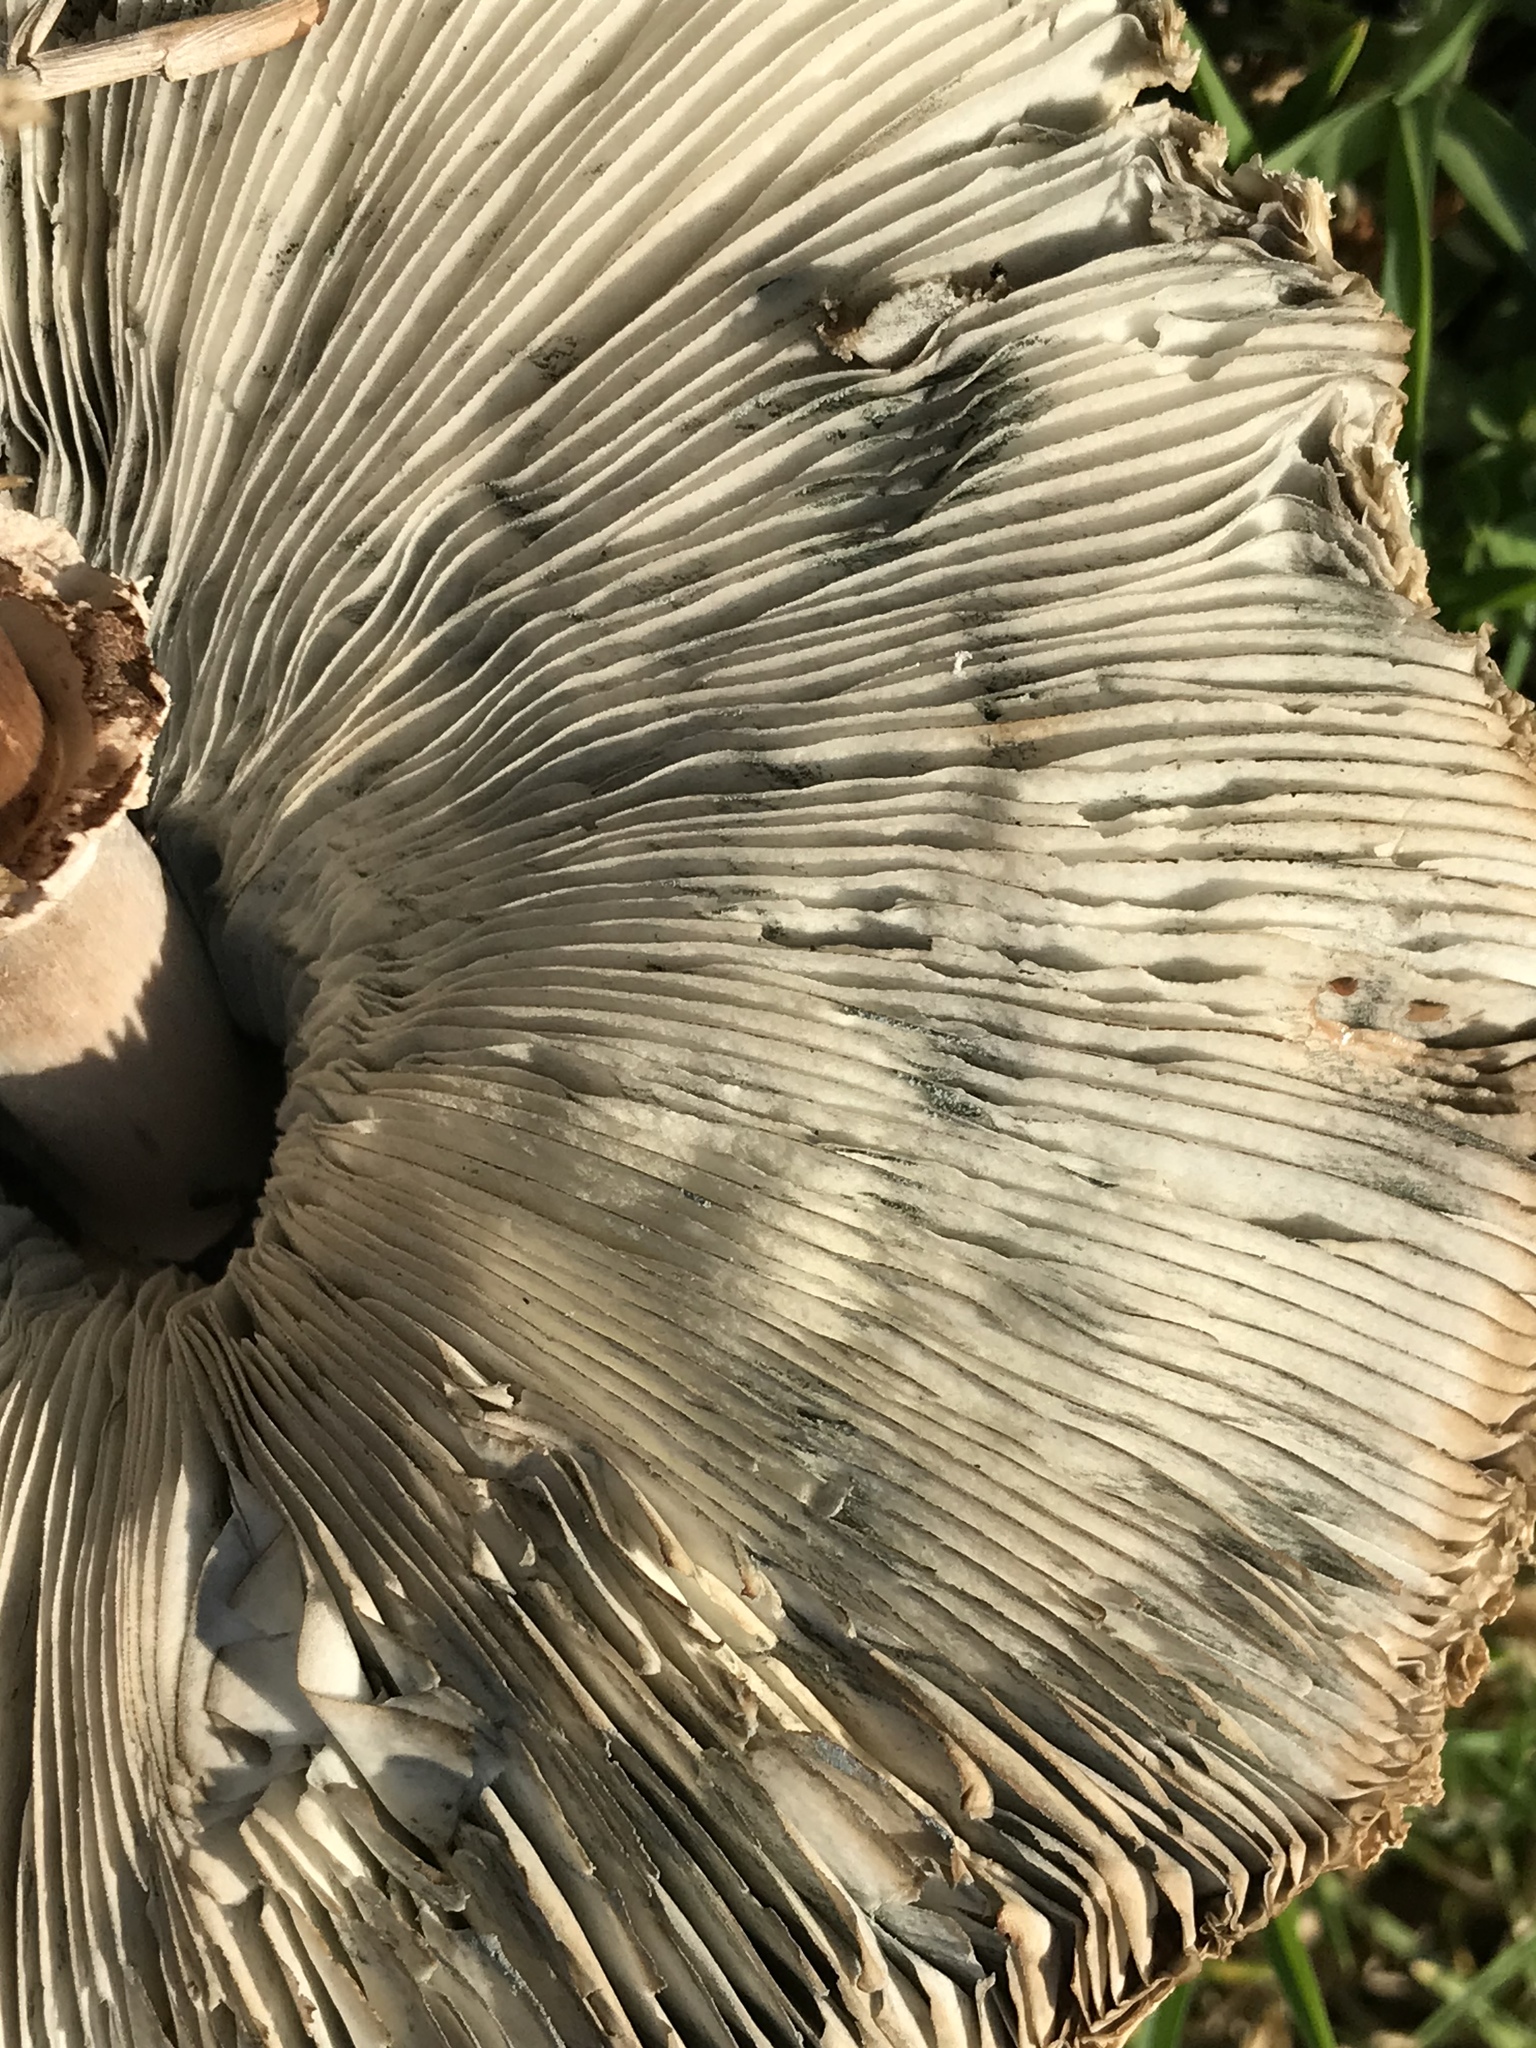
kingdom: Fungi
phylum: Basidiomycota
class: Agaricomycetes
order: Agaricales
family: Agaricaceae
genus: Chlorophyllum
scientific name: Chlorophyllum molybdites
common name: False parasol
